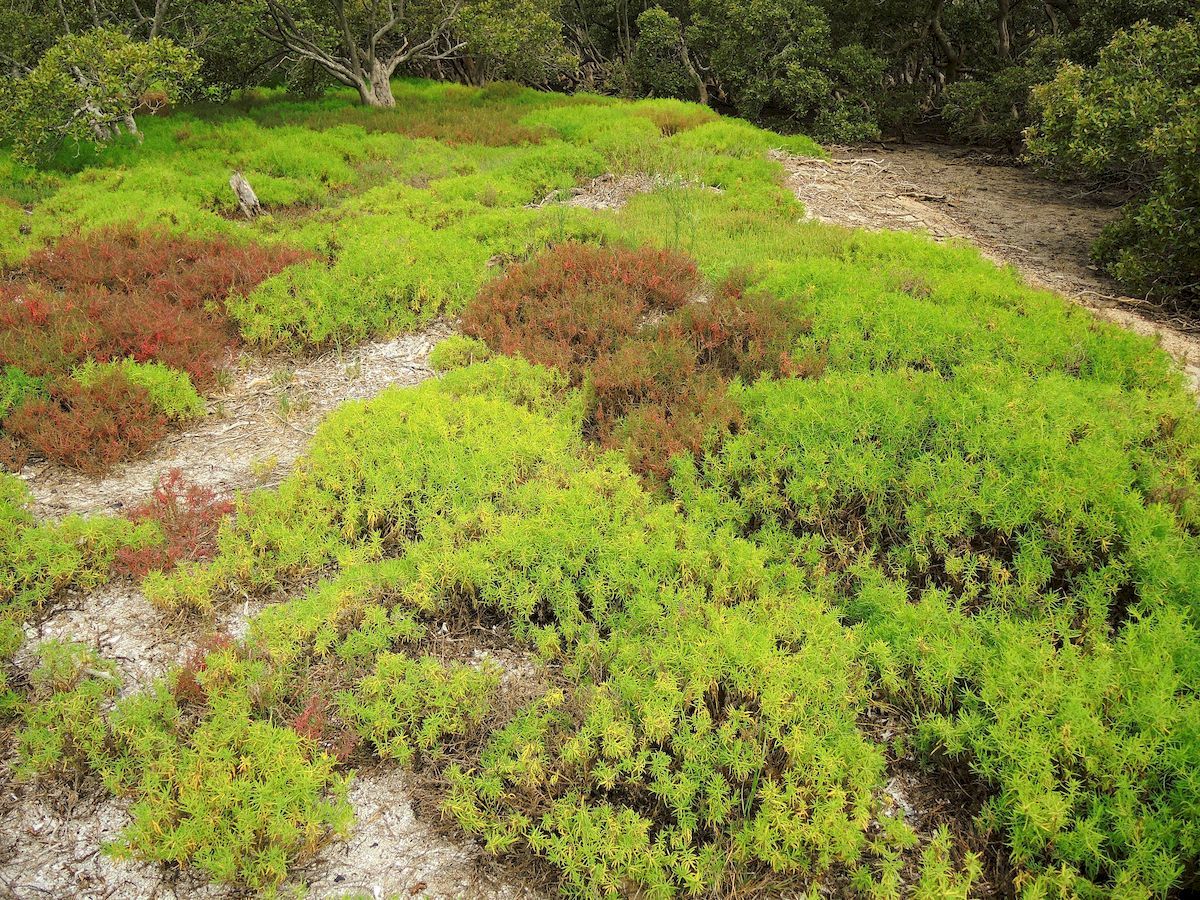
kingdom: Plantae
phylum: Tracheophyta
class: Magnoliopsida
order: Caryophyllales
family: Amaranthaceae
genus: Suaeda
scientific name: Suaeda australis
